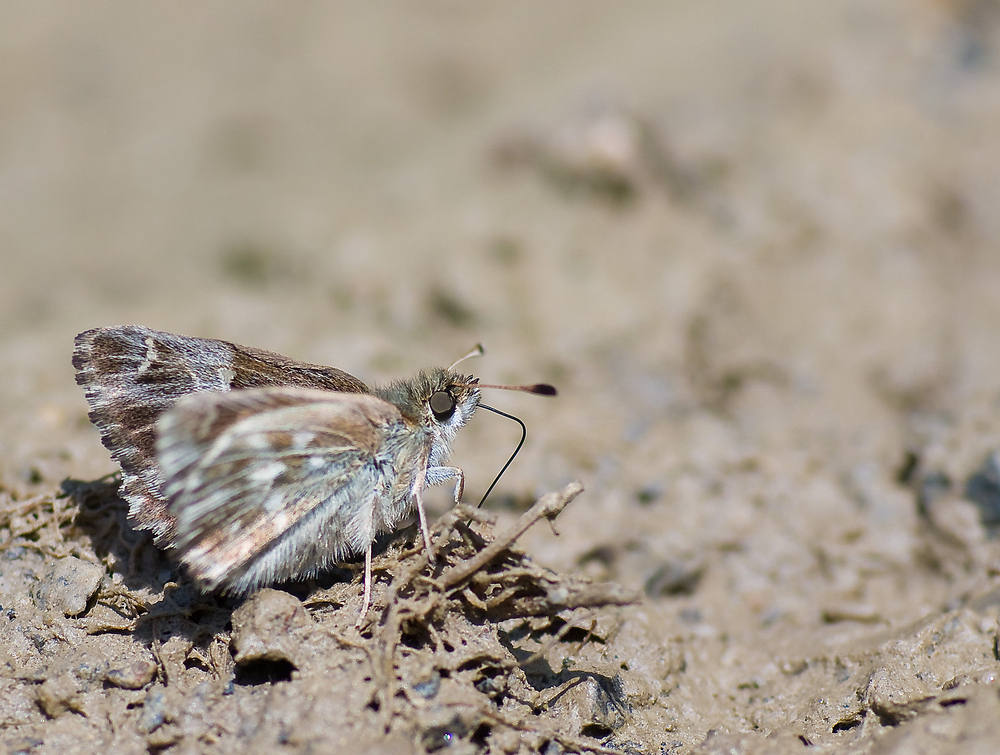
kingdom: Animalia
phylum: Arthropoda
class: Insecta
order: Lepidoptera
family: Hesperiidae
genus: Carcharodus
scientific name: Carcharodus floccifera
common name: Tufted marbled skipper
